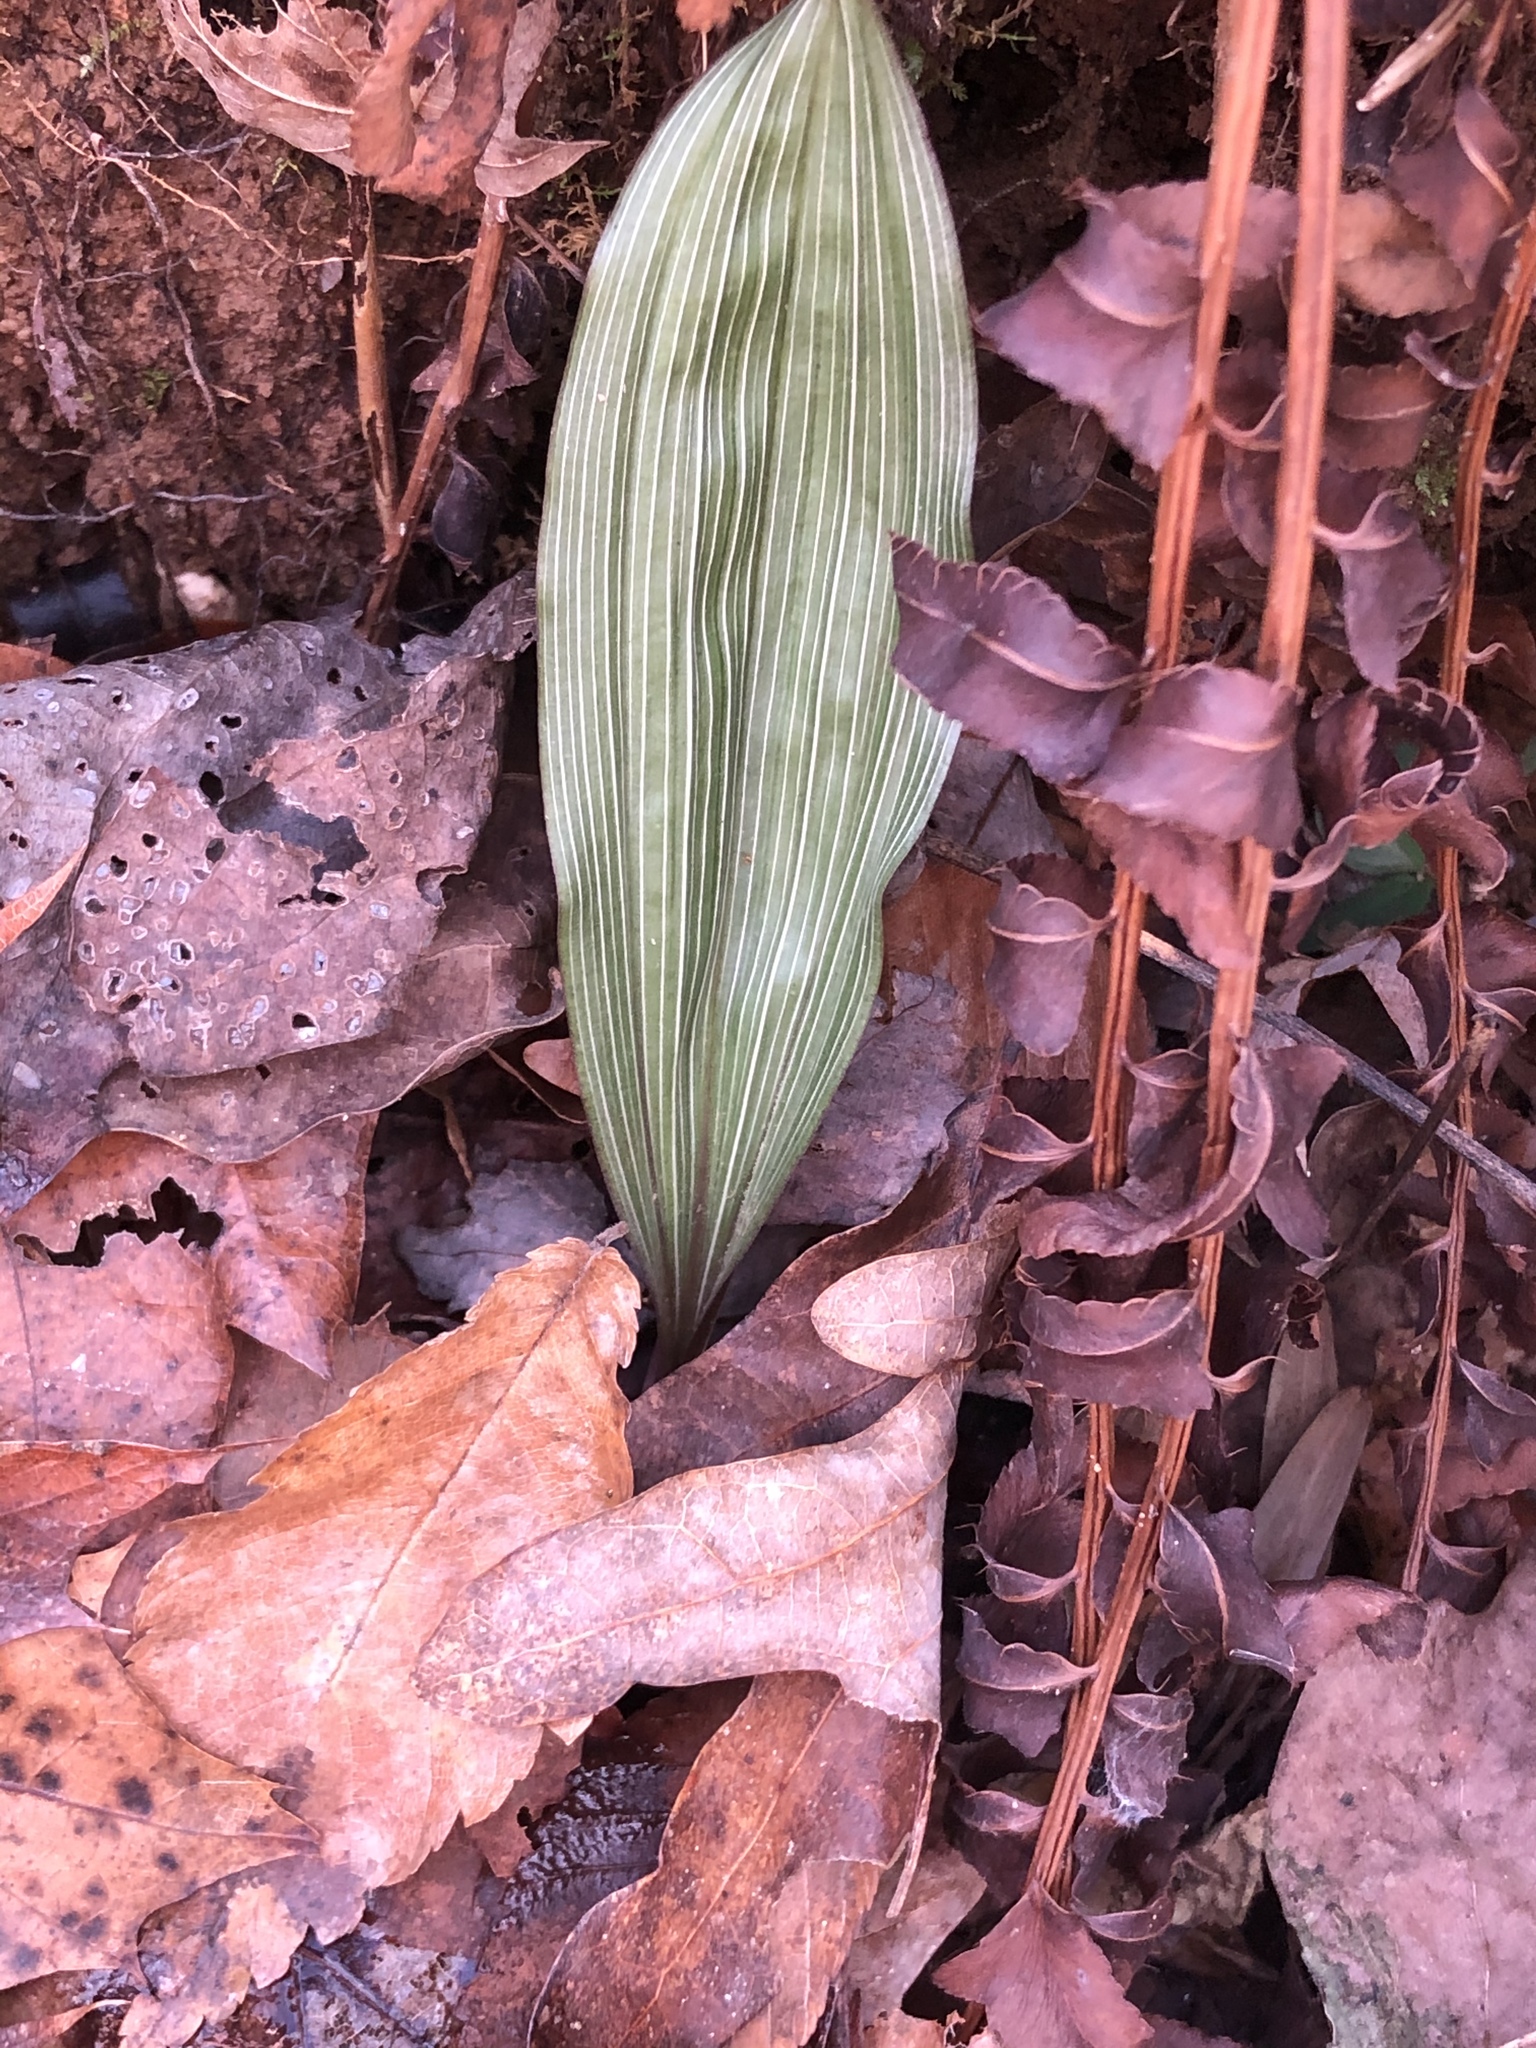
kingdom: Plantae
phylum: Tracheophyta
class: Liliopsida
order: Asparagales
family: Orchidaceae
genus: Aplectrum
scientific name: Aplectrum hyemale
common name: Adam-and-eve
